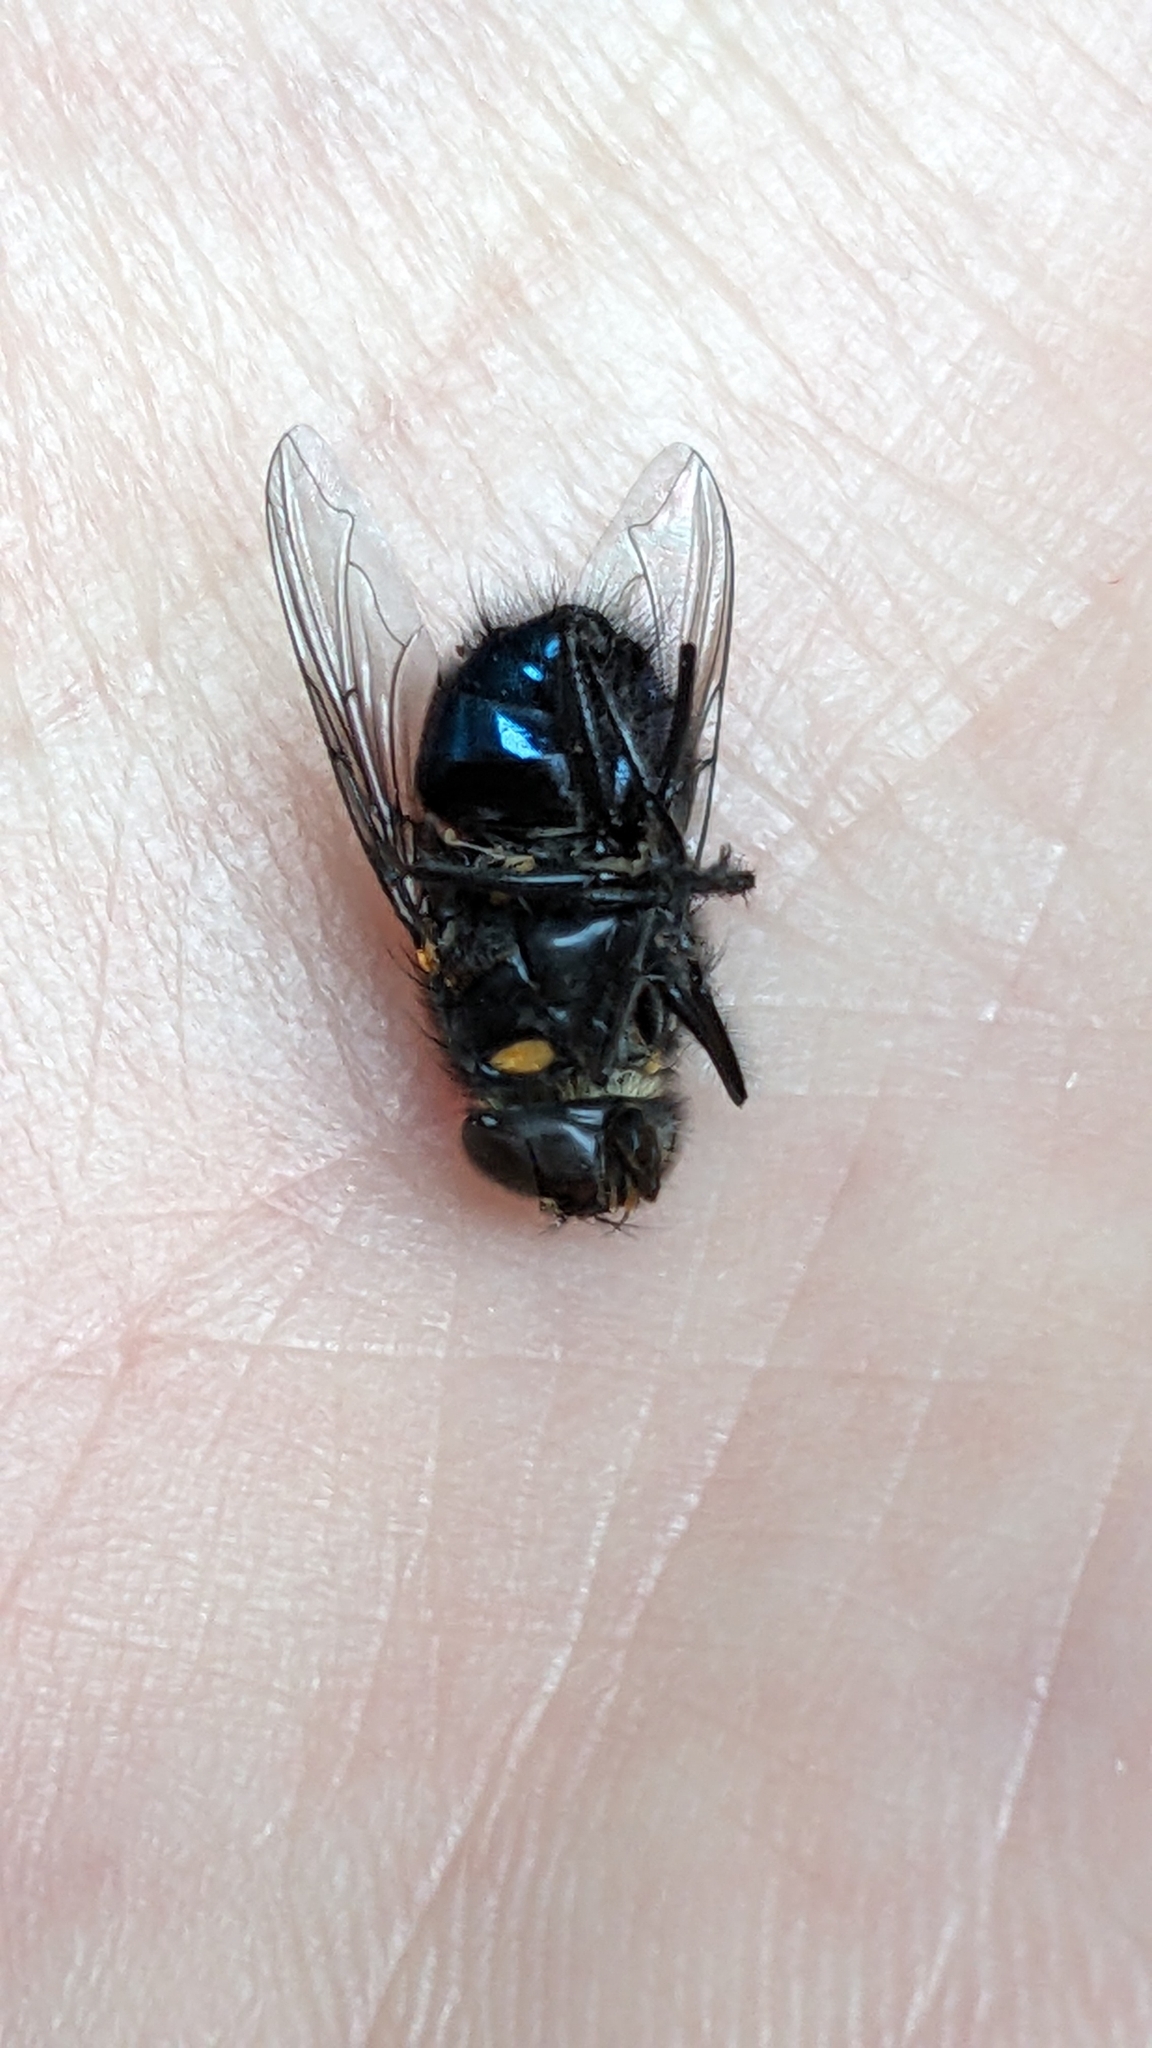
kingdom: Animalia
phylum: Arthropoda
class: Insecta
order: Diptera
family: Calliphoridae
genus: Calliphora
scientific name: Calliphora quadrimaculata
